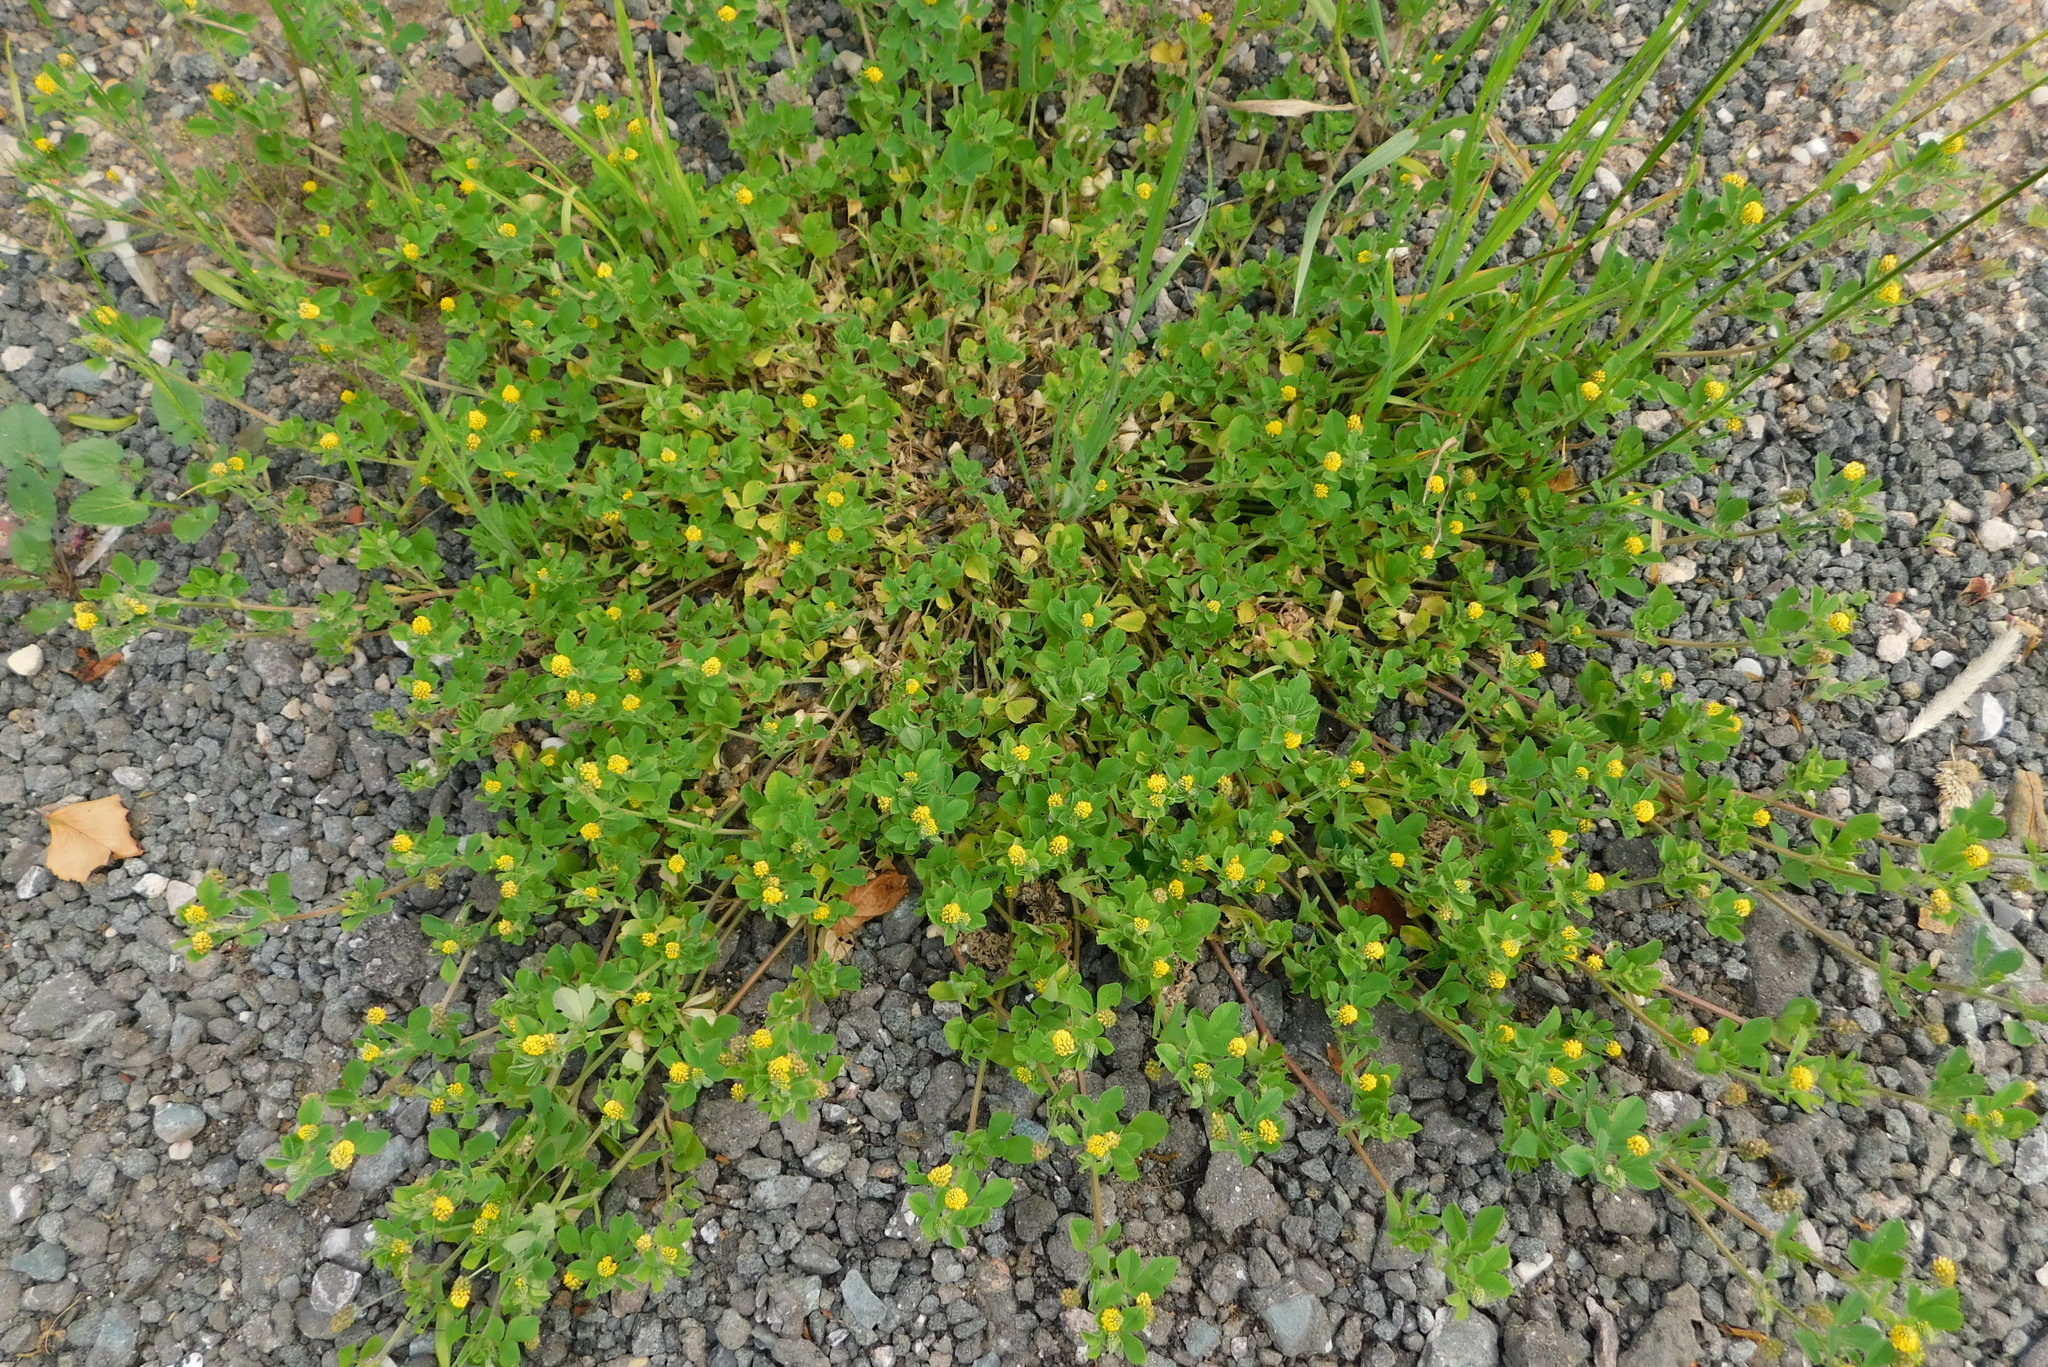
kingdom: Plantae
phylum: Tracheophyta
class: Magnoliopsida
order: Fabales
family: Fabaceae
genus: Medicago
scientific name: Medicago lupulina
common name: Black medick
